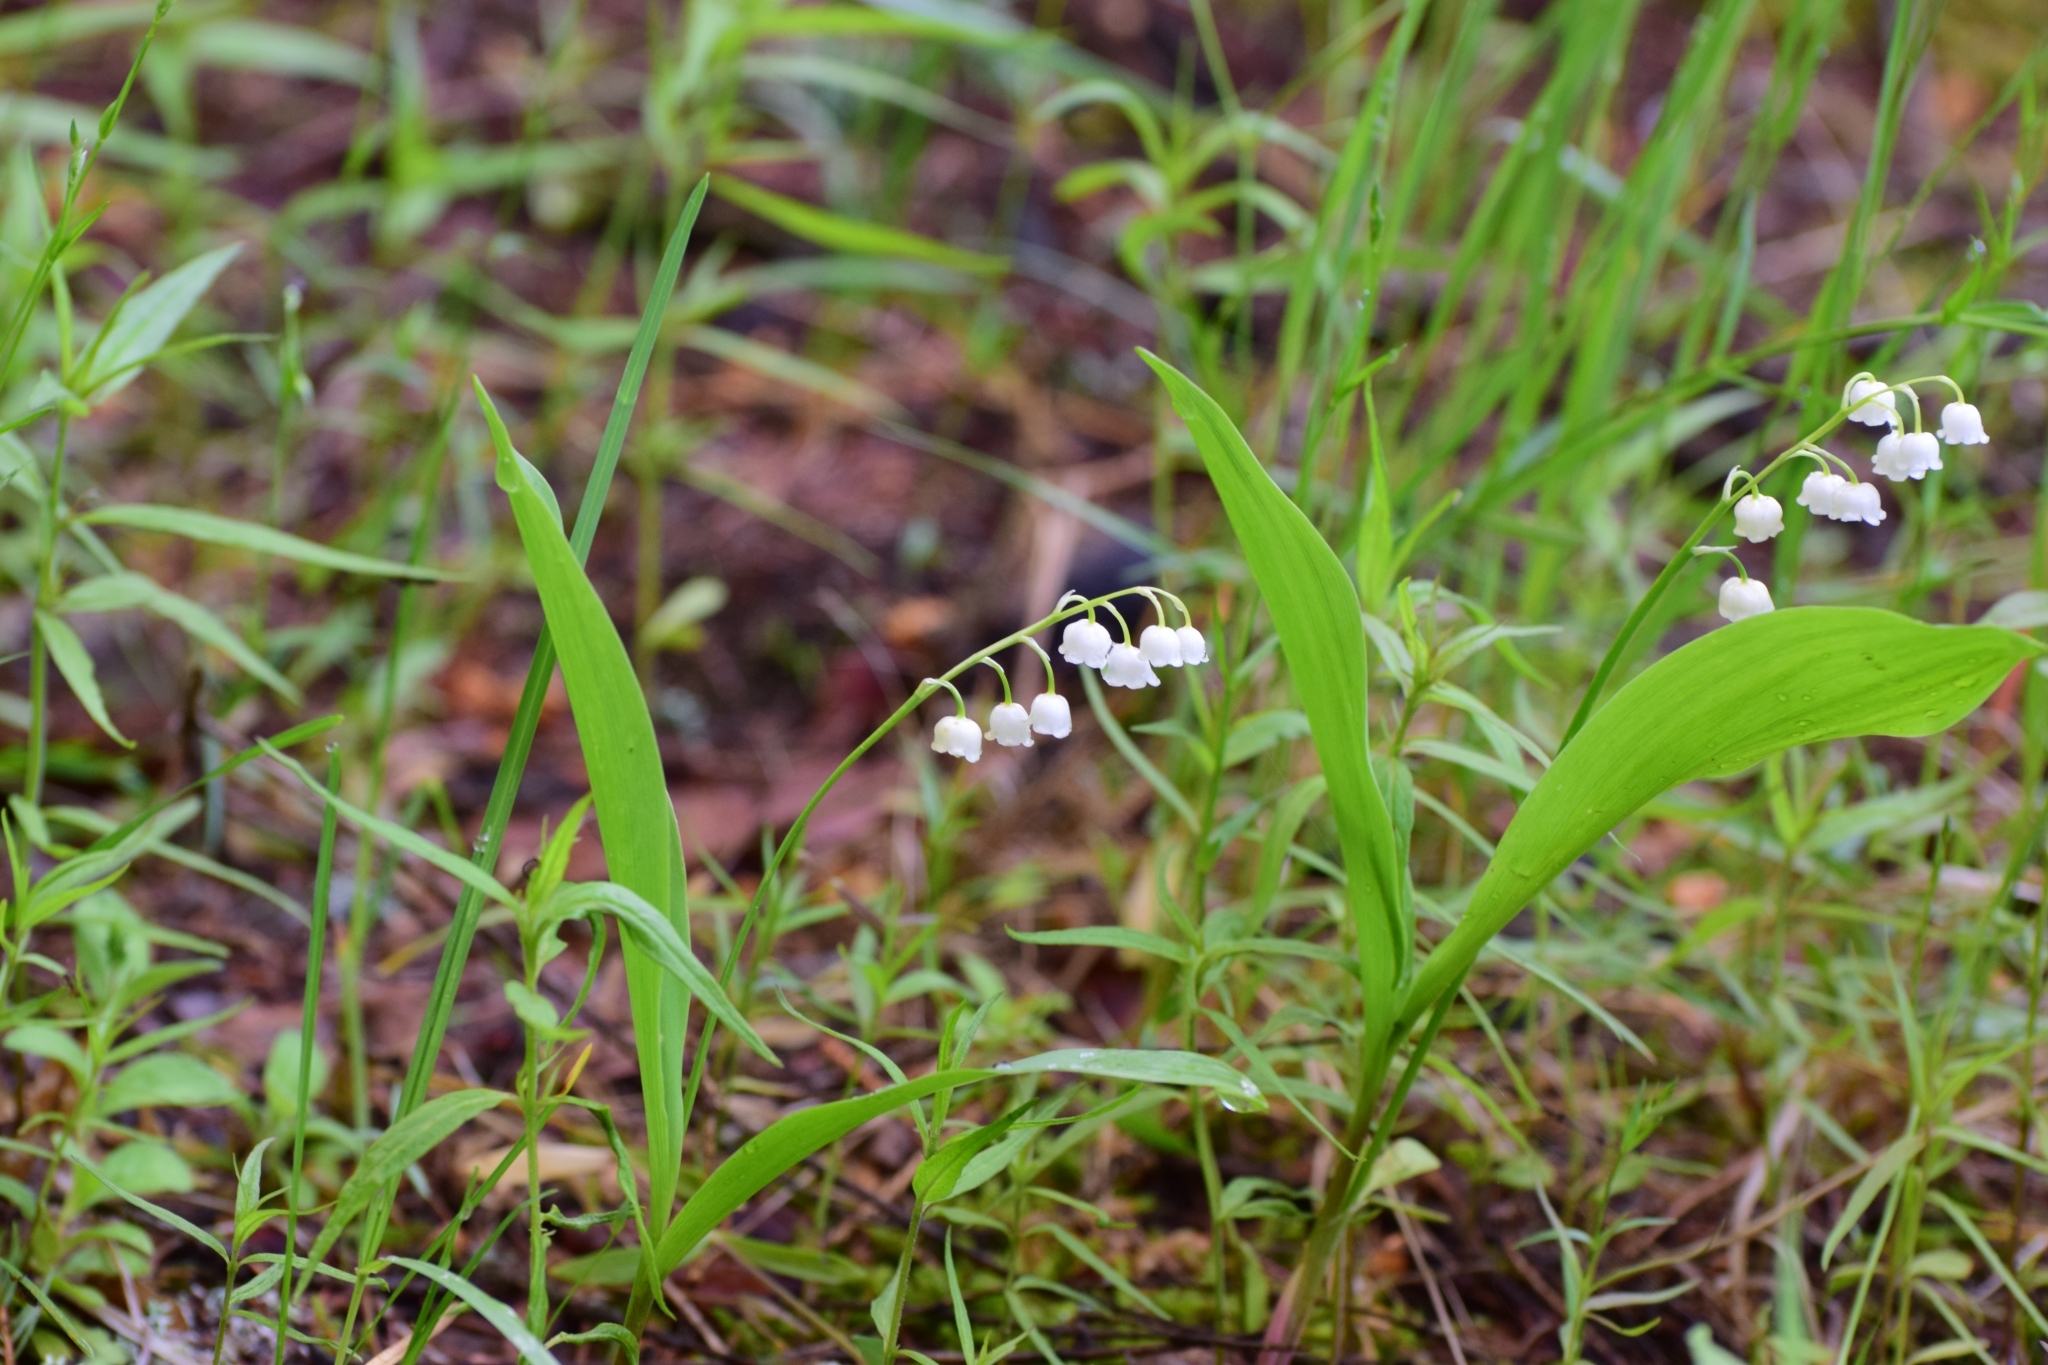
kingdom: Plantae
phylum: Tracheophyta
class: Liliopsida
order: Asparagales
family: Asparagaceae
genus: Convallaria
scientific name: Convallaria majalis
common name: Lily-of-the-valley
